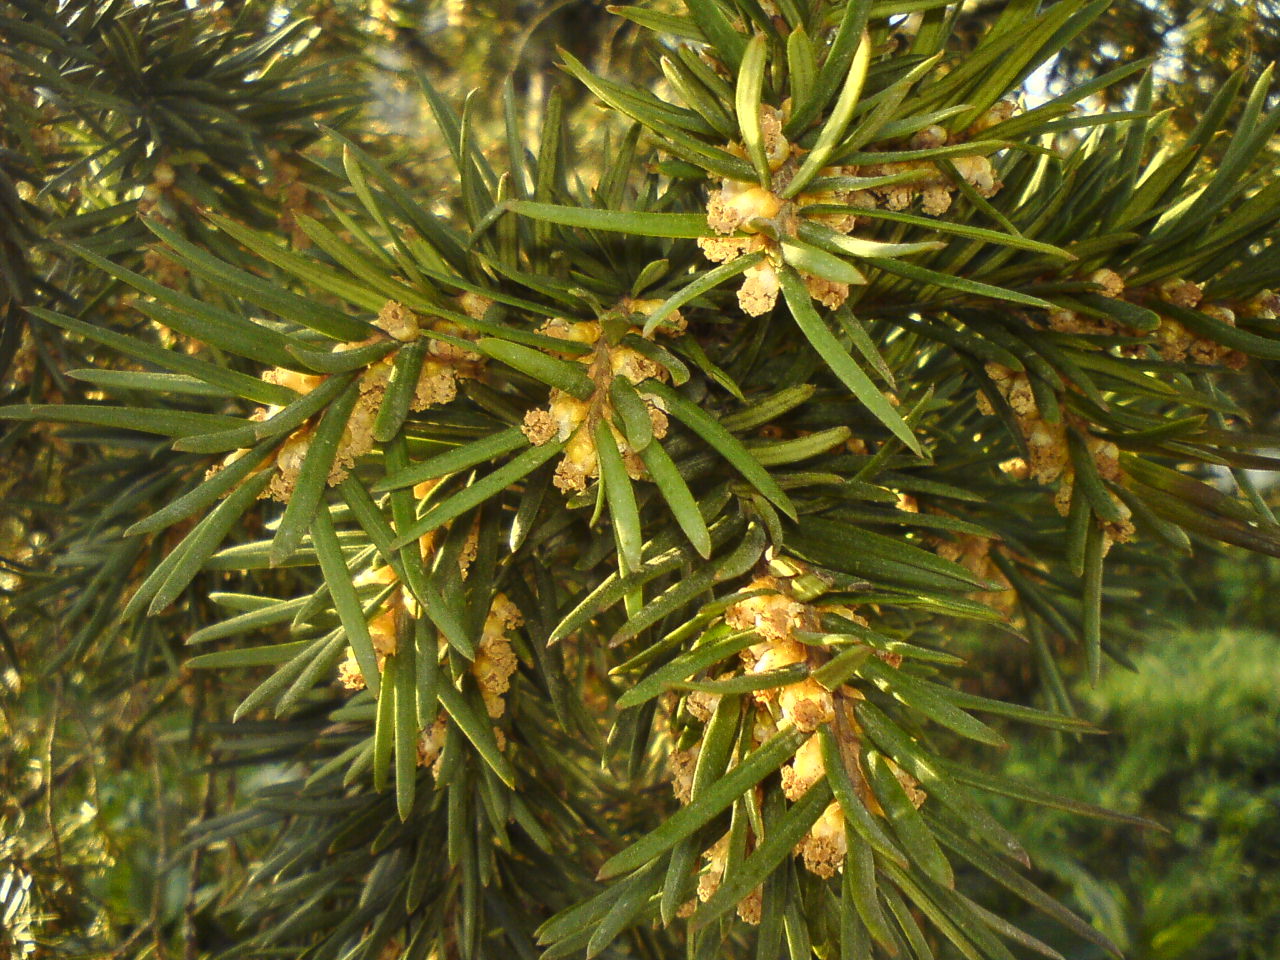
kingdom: Plantae
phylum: Tracheophyta
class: Pinopsida
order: Pinales
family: Taxaceae
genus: Taxus
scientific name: Taxus baccata
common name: Yew
